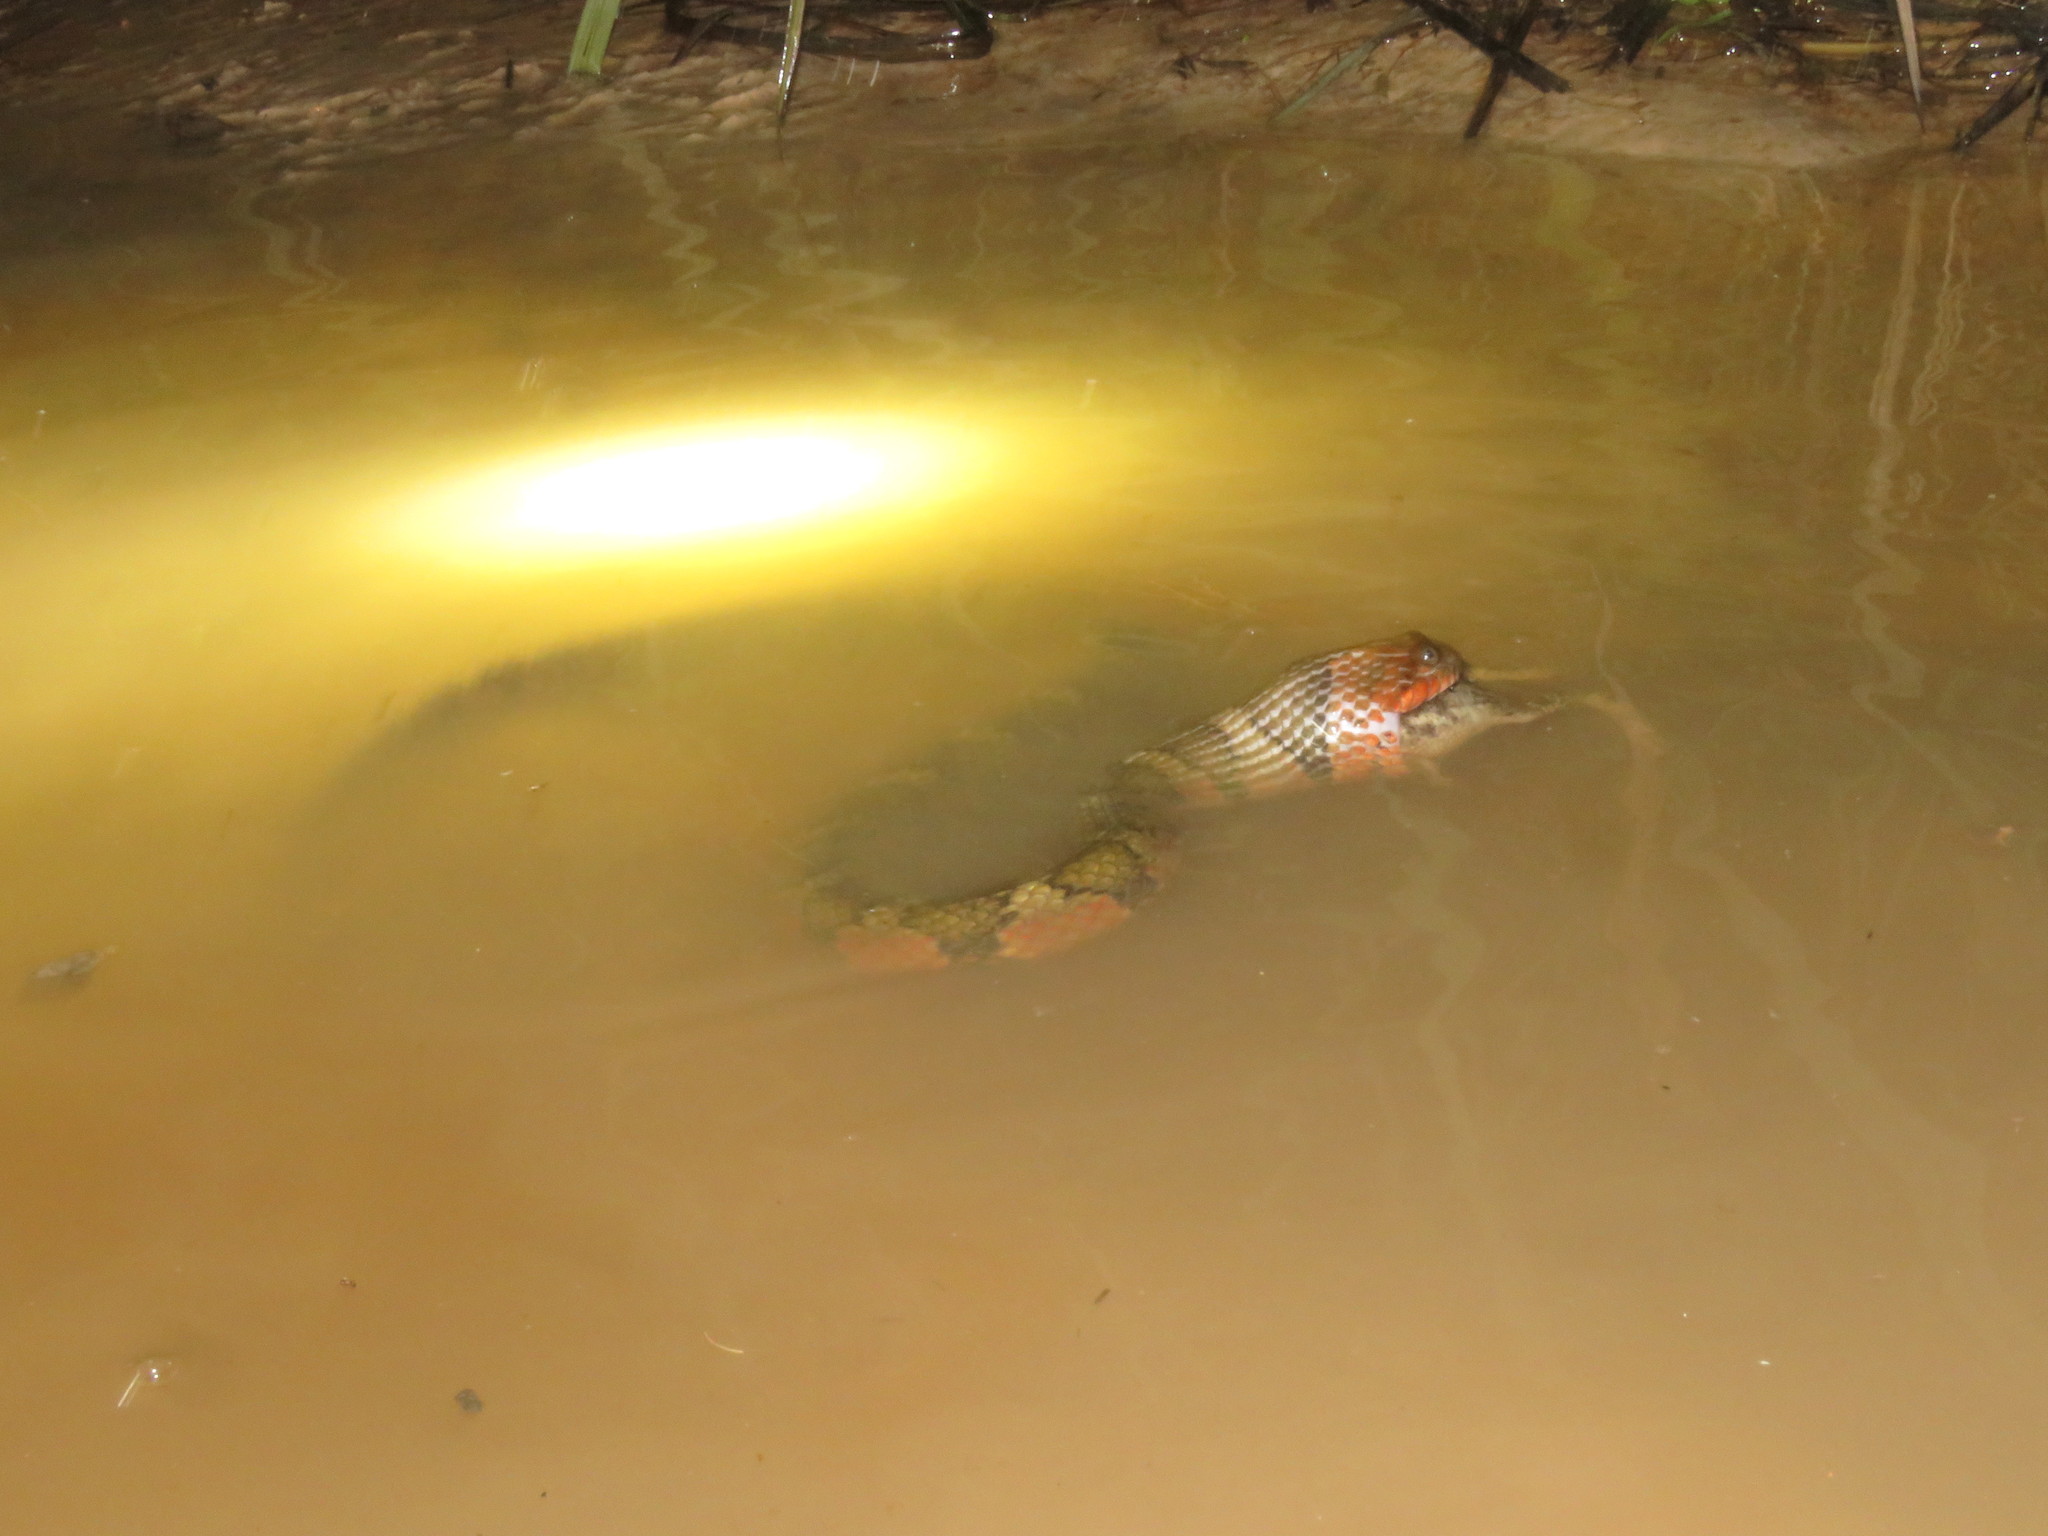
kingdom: Animalia
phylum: Chordata
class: Squamata
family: Colubridae
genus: Helicops
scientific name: Helicops angulatus
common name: Mountain keelback
